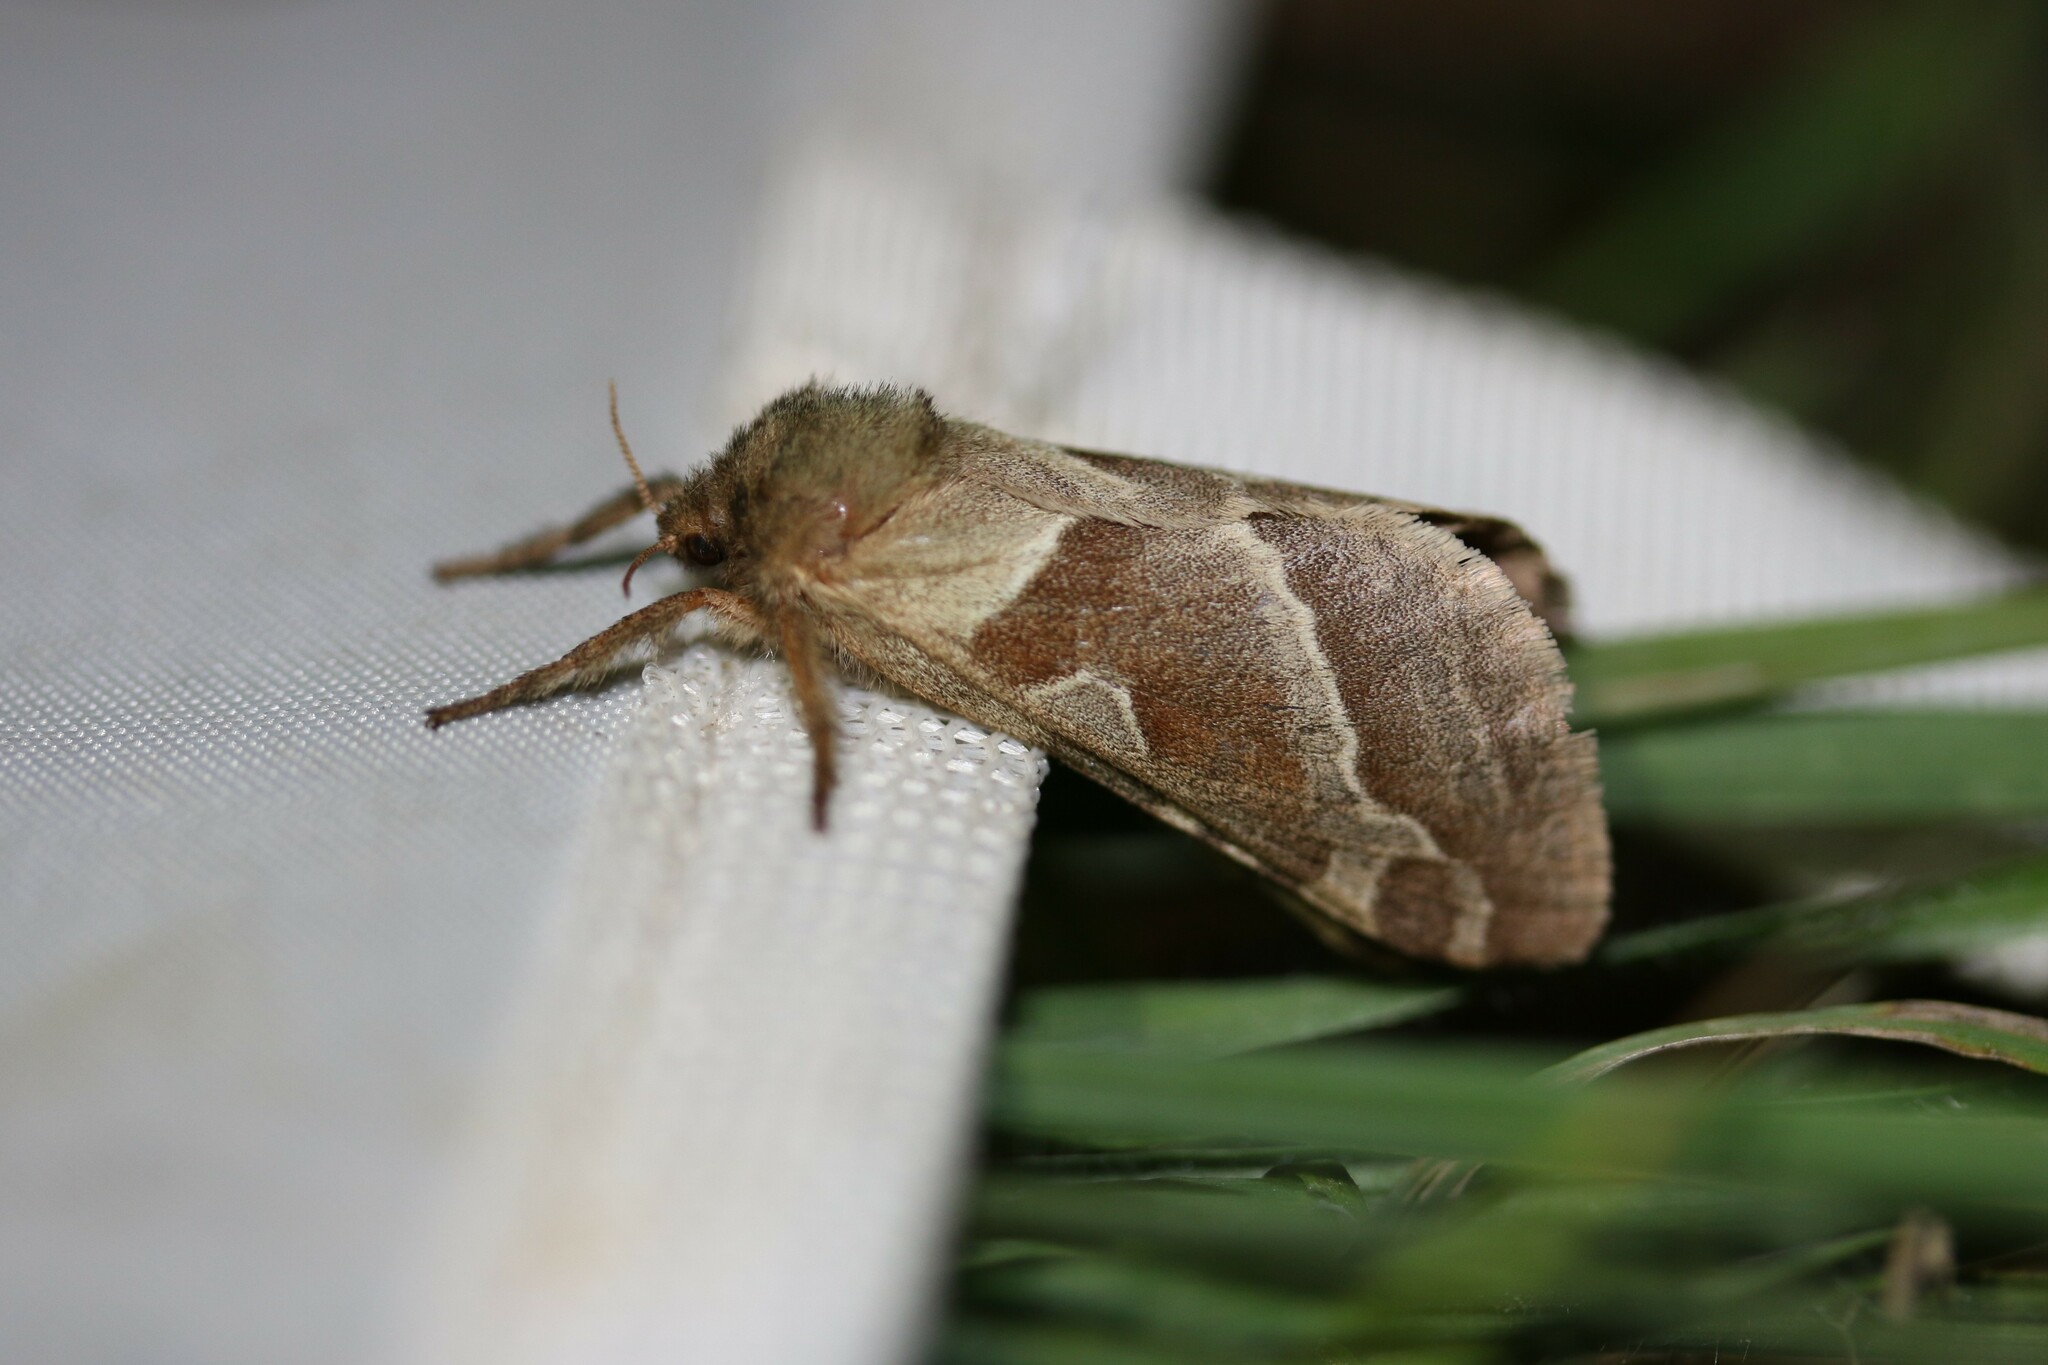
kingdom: Animalia
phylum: Arthropoda
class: Insecta
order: Lepidoptera
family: Hepialidae
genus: Triodia
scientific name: Triodia sylvina
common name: Orange swift
